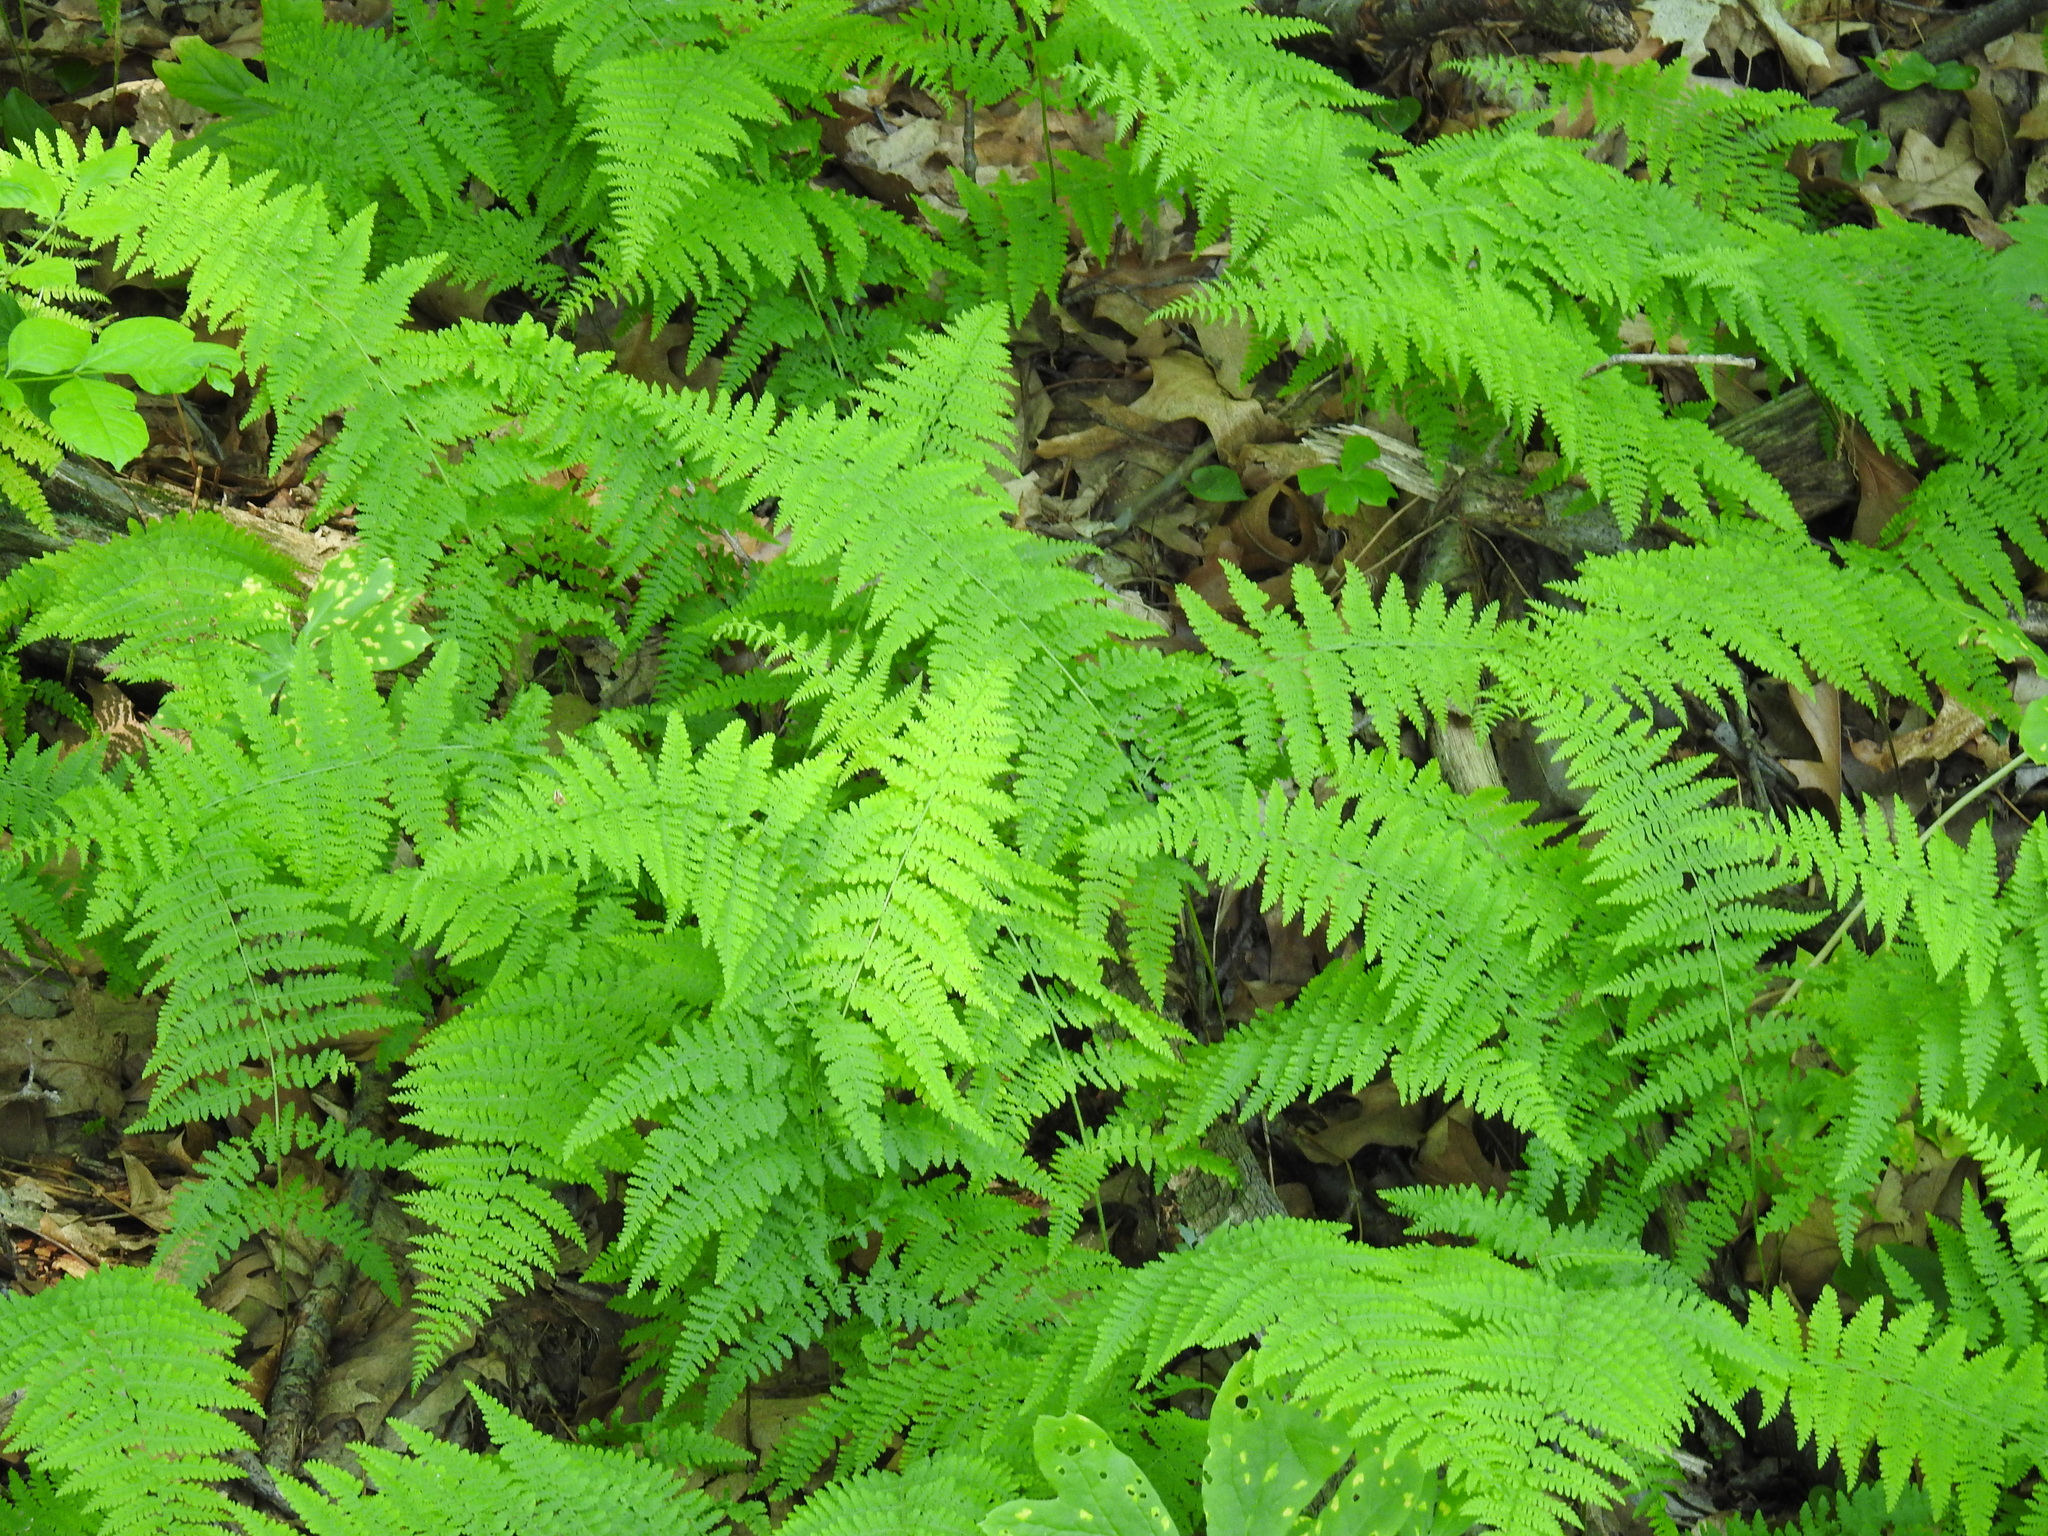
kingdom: Plantae
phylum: Tracheophyta
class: Polypodiopsida
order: Polypodiales
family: Dennstaedtiaceae
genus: Sitobolium
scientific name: Sitobolium punctilobum
